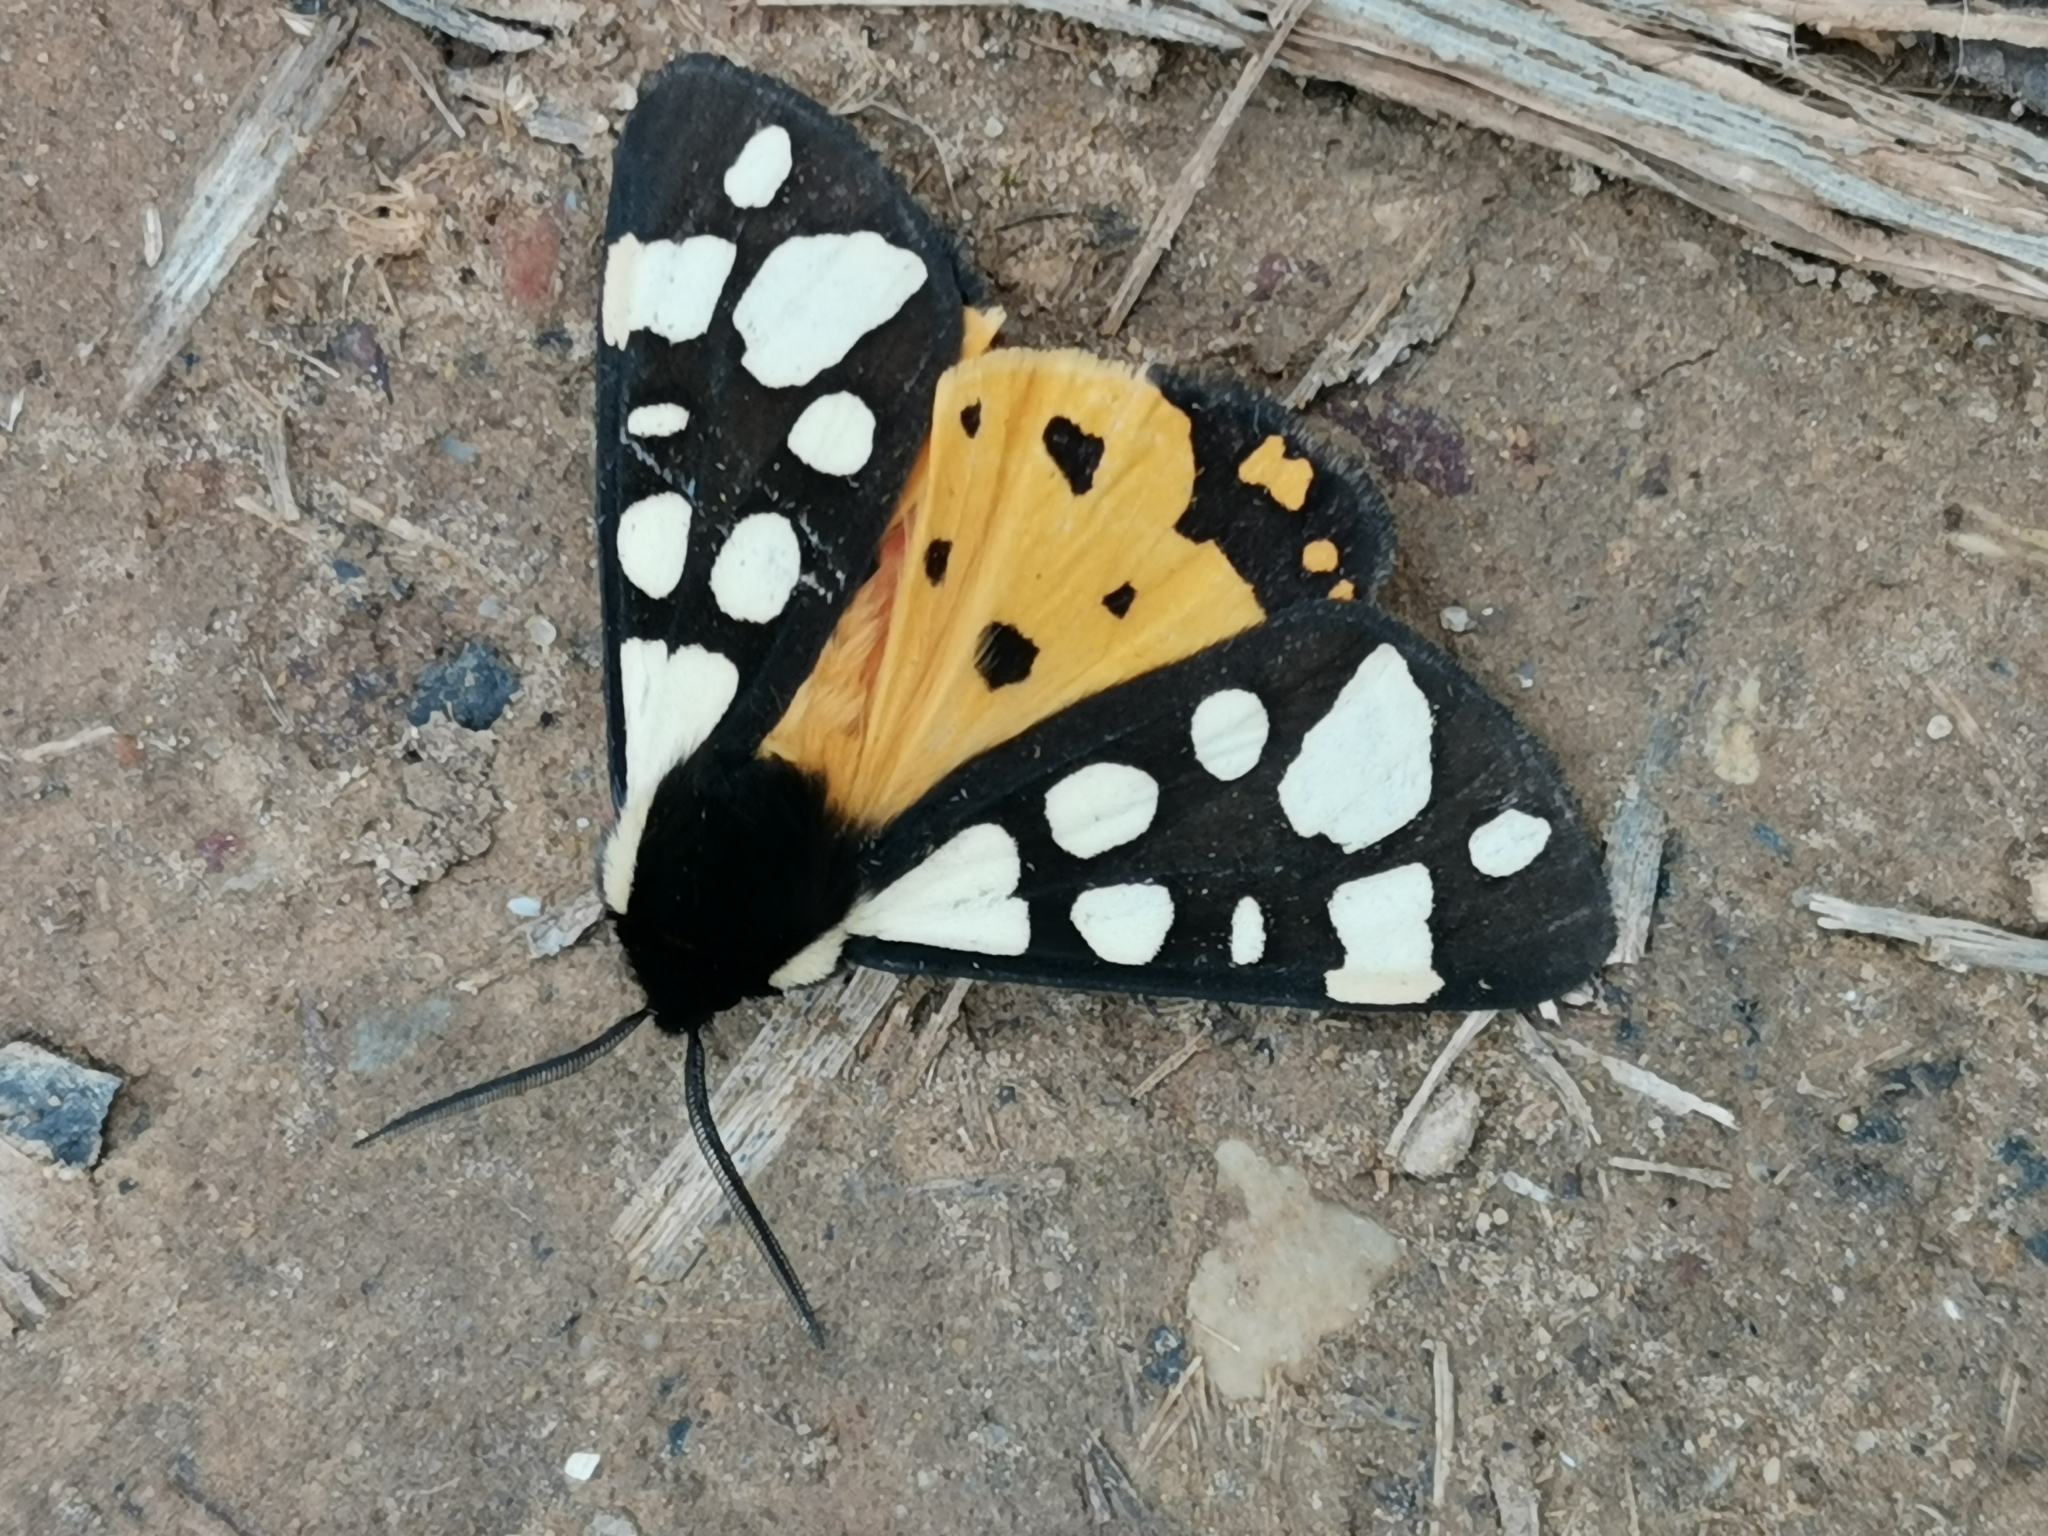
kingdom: Animalia
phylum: Arthropoda
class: Insecta
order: Lepidoptera
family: Erebidae
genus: Epicallia
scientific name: Epicallia villica
